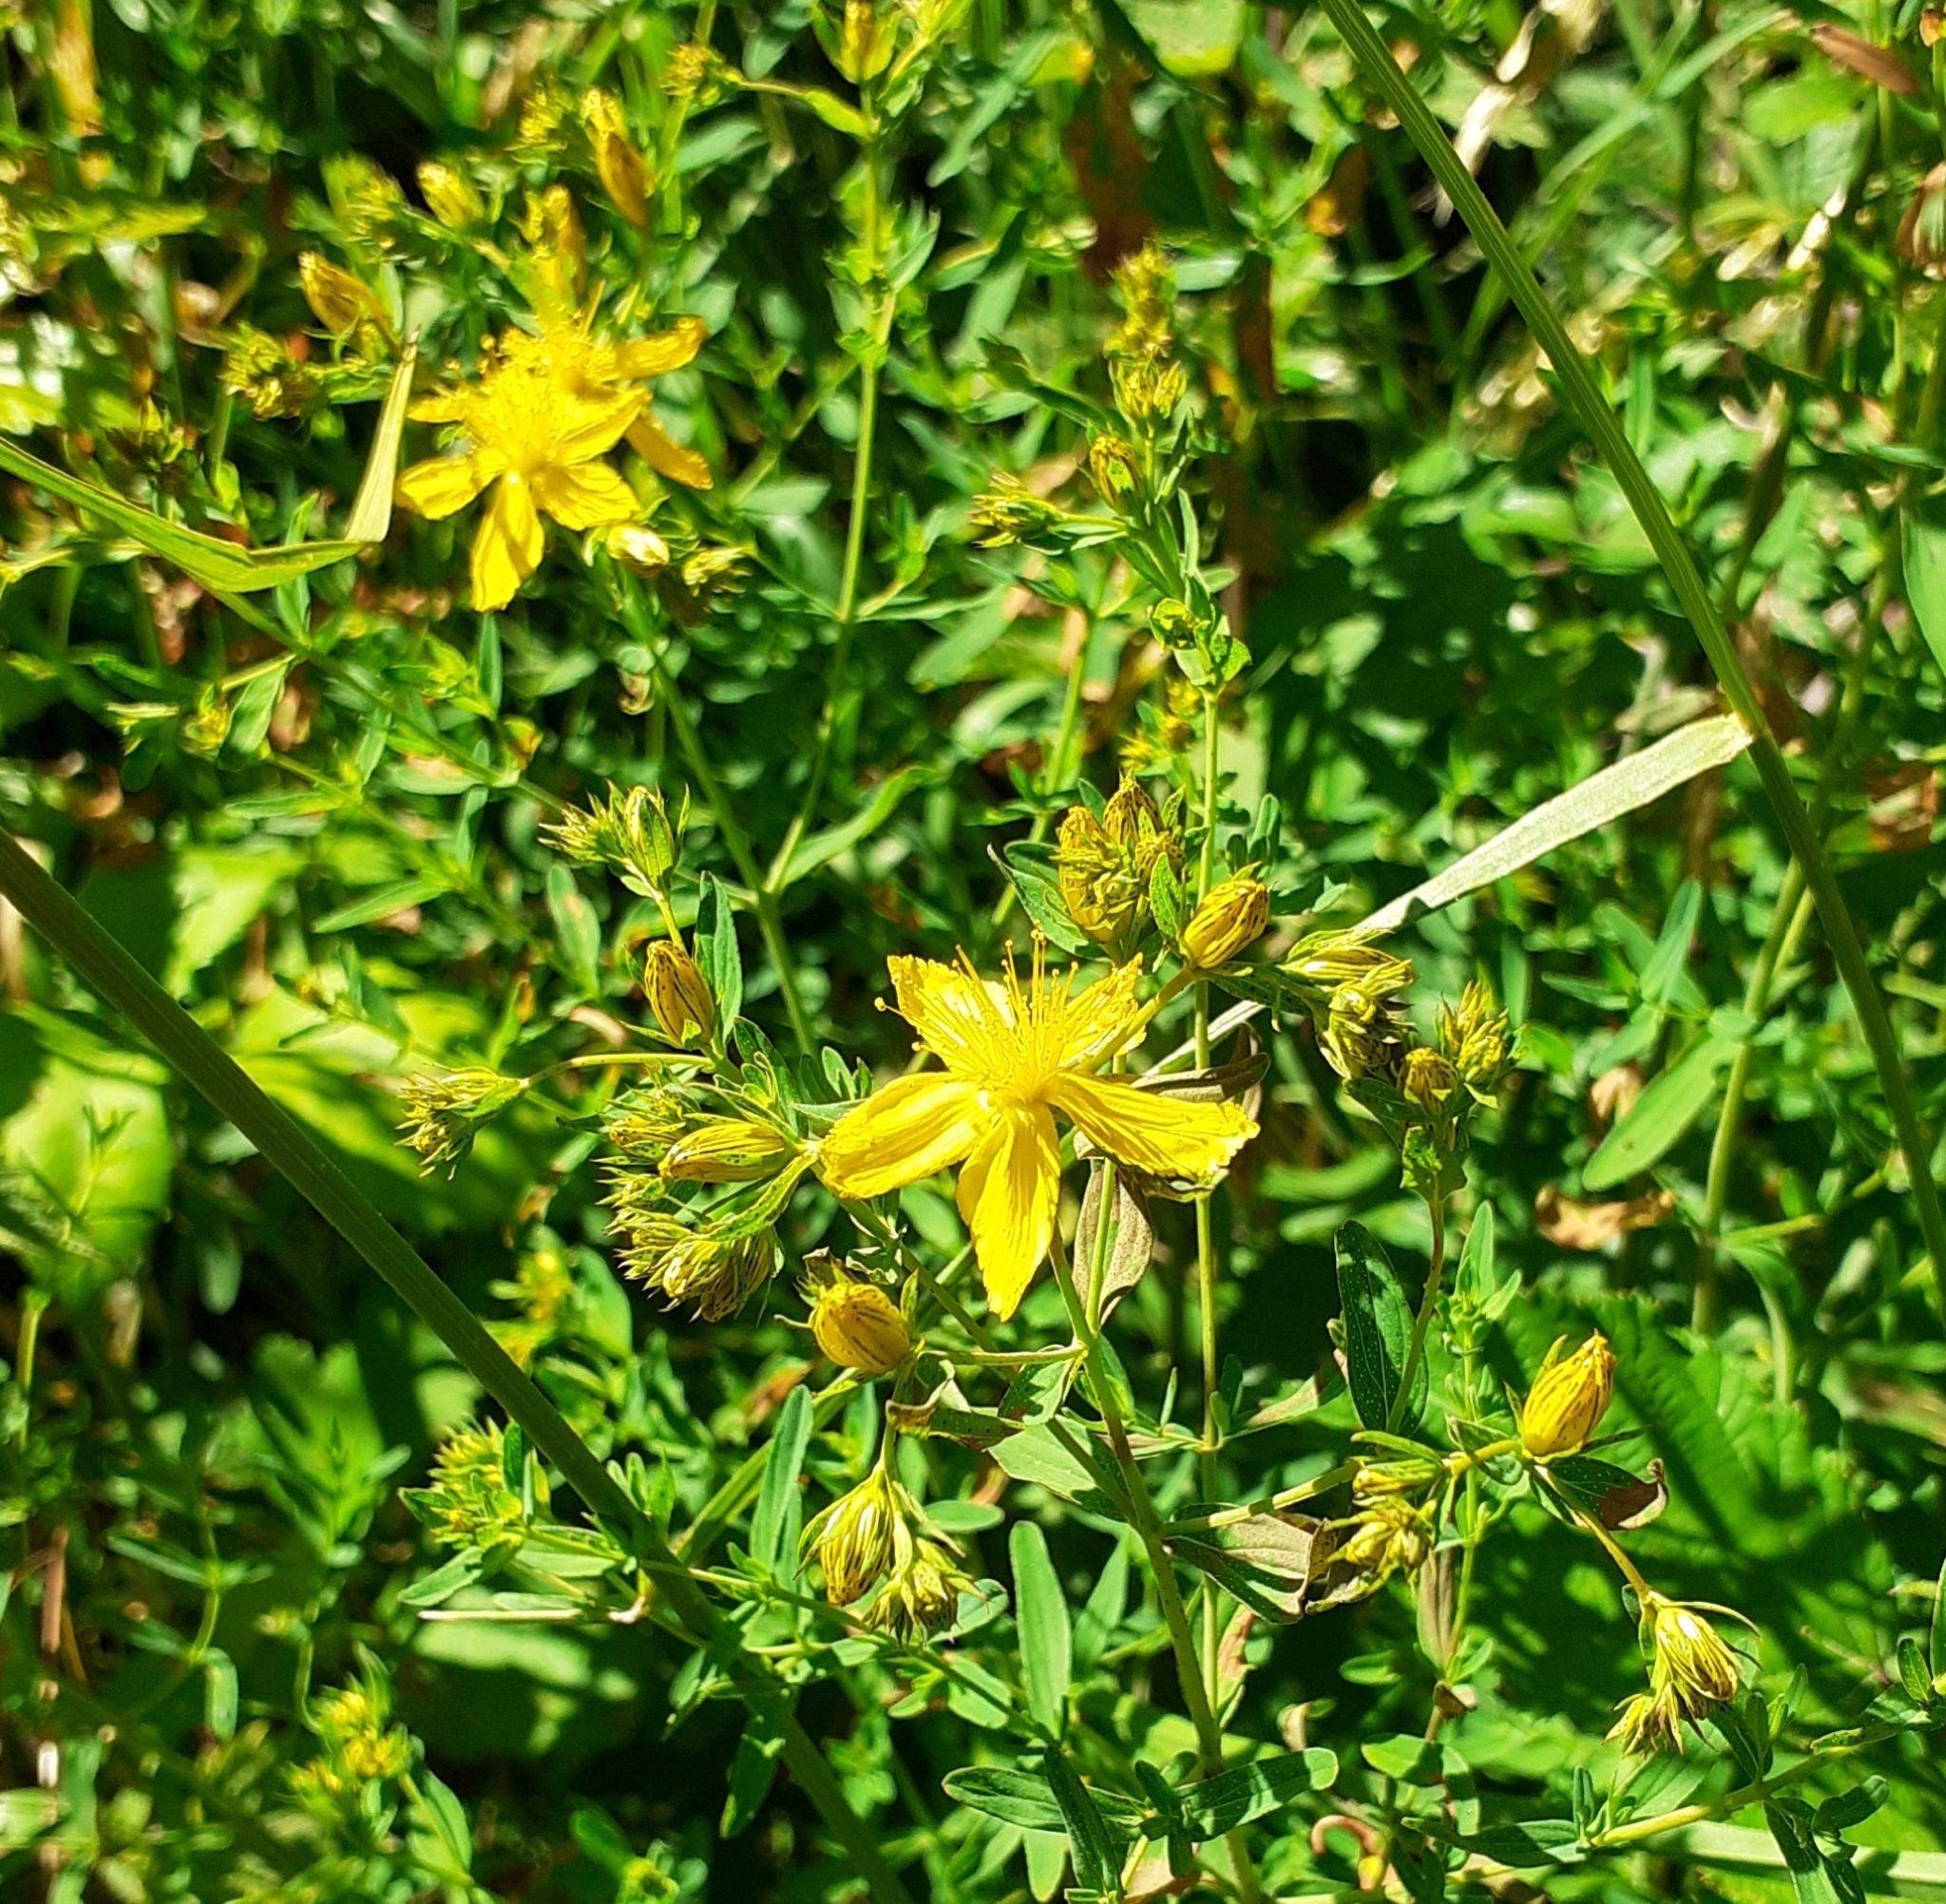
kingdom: Plantae
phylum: Tracheophyta
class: Magnoliopsida
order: Malpighiales
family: Hypericaceae
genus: Hypericum
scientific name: Hypericum perforatum
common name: Common st. johnswort
